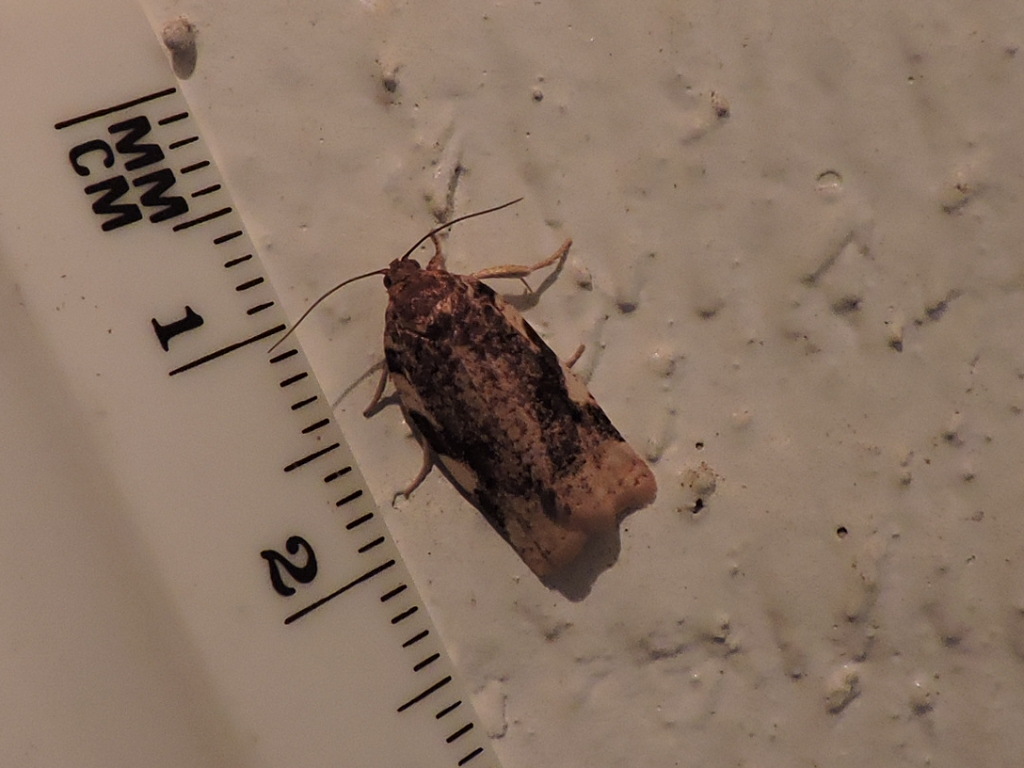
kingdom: Animalia
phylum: Arthropoda
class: Insecta
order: Lepidoptera
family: Tortricidae
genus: Archips
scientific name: Archips argyrospila
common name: Fruit-tree leafroller moth
